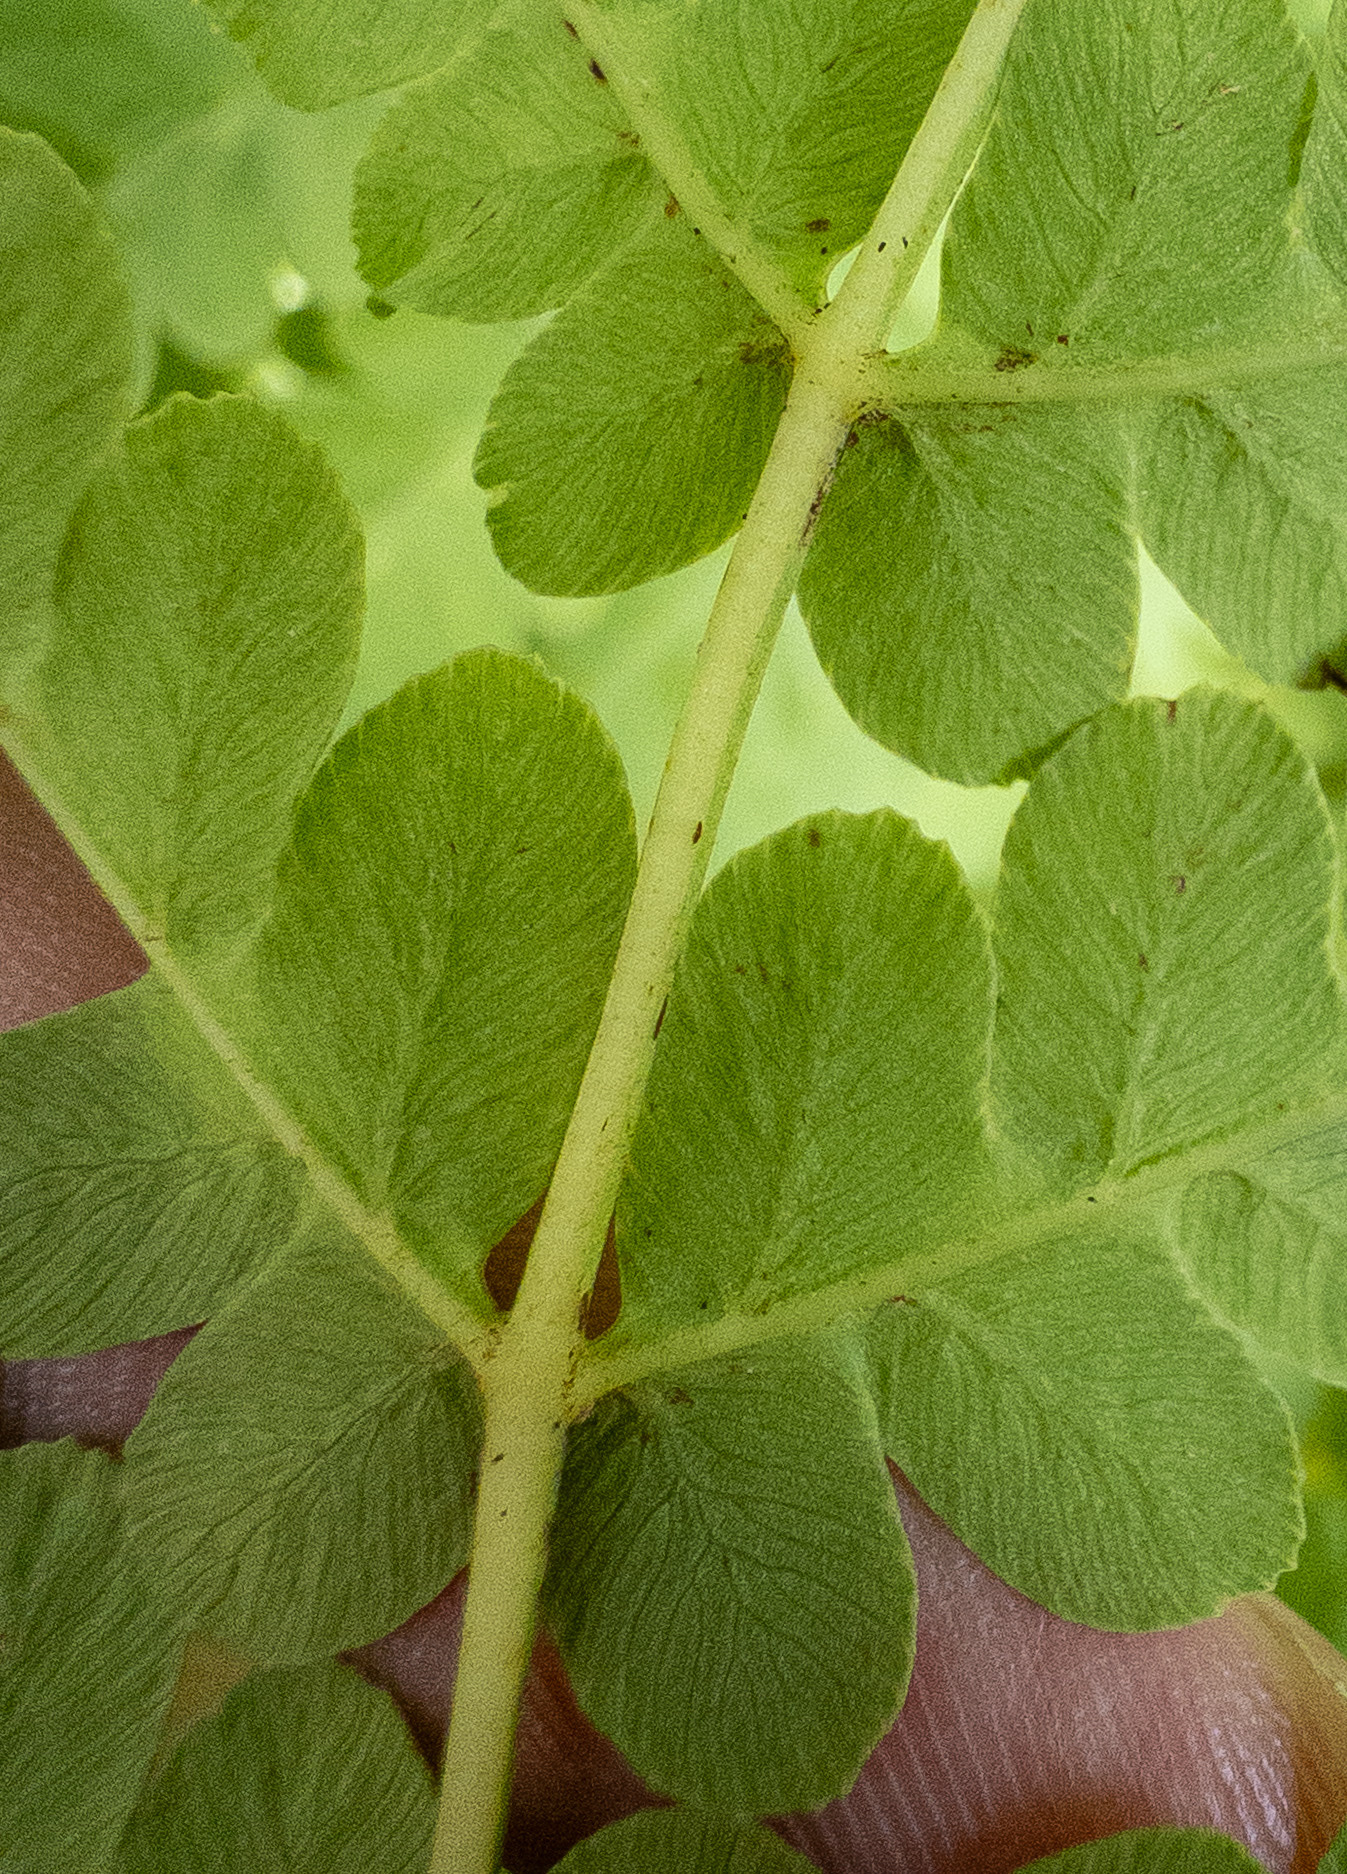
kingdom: Plantae
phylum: Tracheophyta
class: Polypodiopsida
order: Osmundales
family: Osmundaceae
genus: Claytosmunda
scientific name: Claytosmunda claytoniana
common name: Clayton's fern
